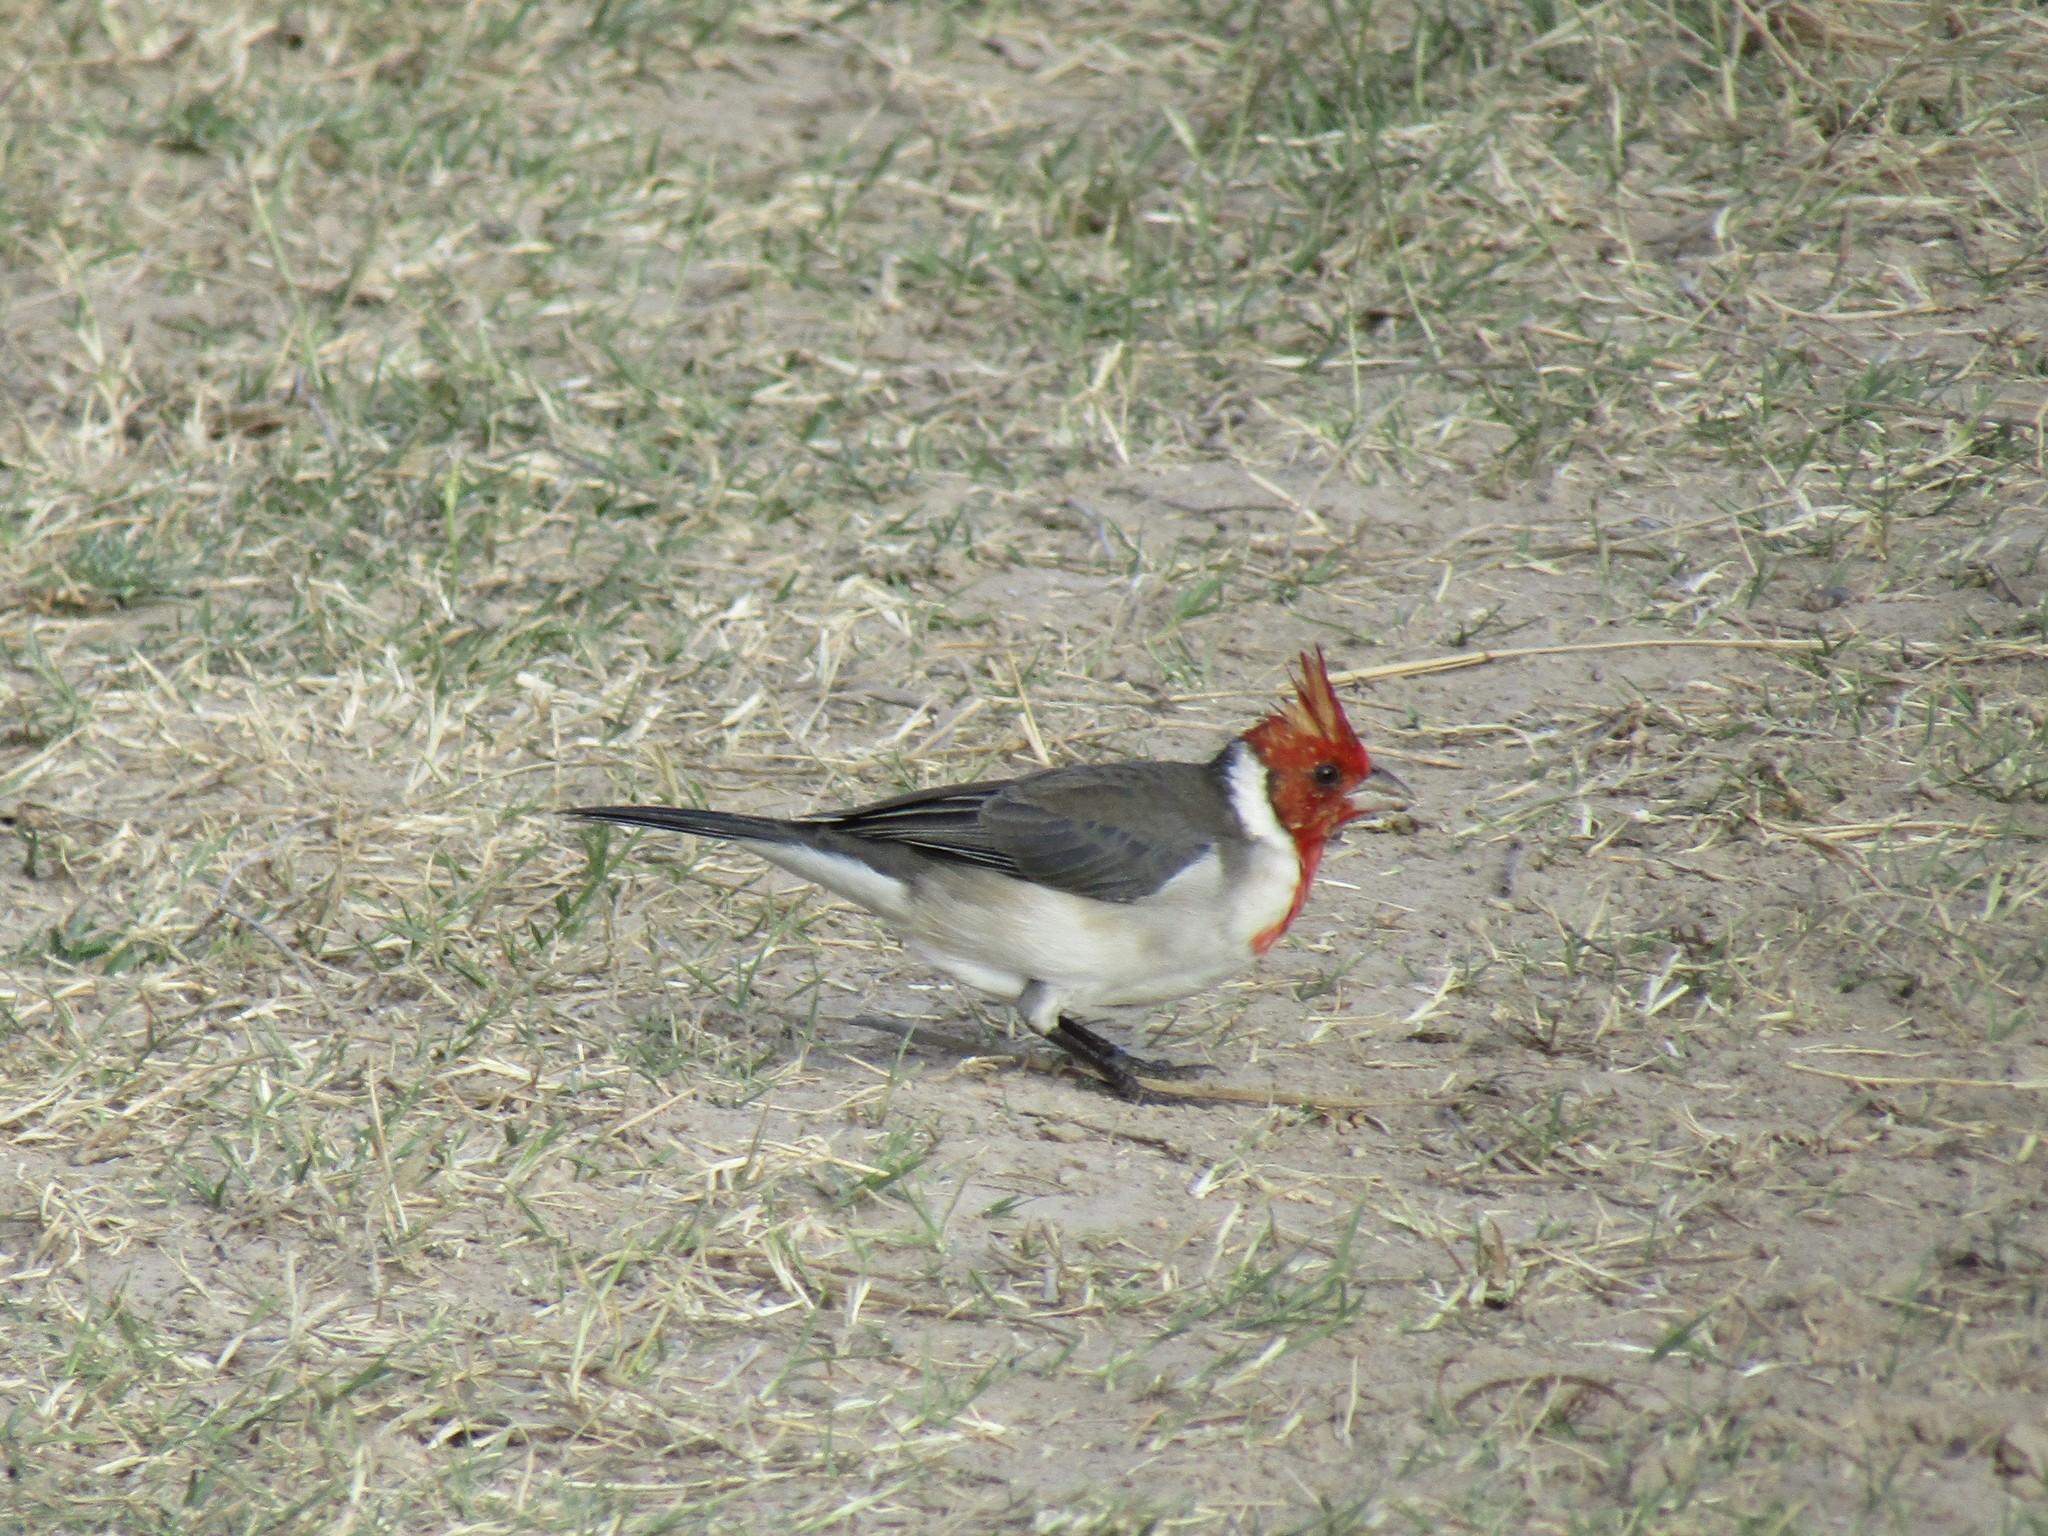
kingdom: Animalia
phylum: Chordata
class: Aves
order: Passeriformes
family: Thraupidae
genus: Paroaria
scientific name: Paroaria coronata
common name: Red-crested cardinal
